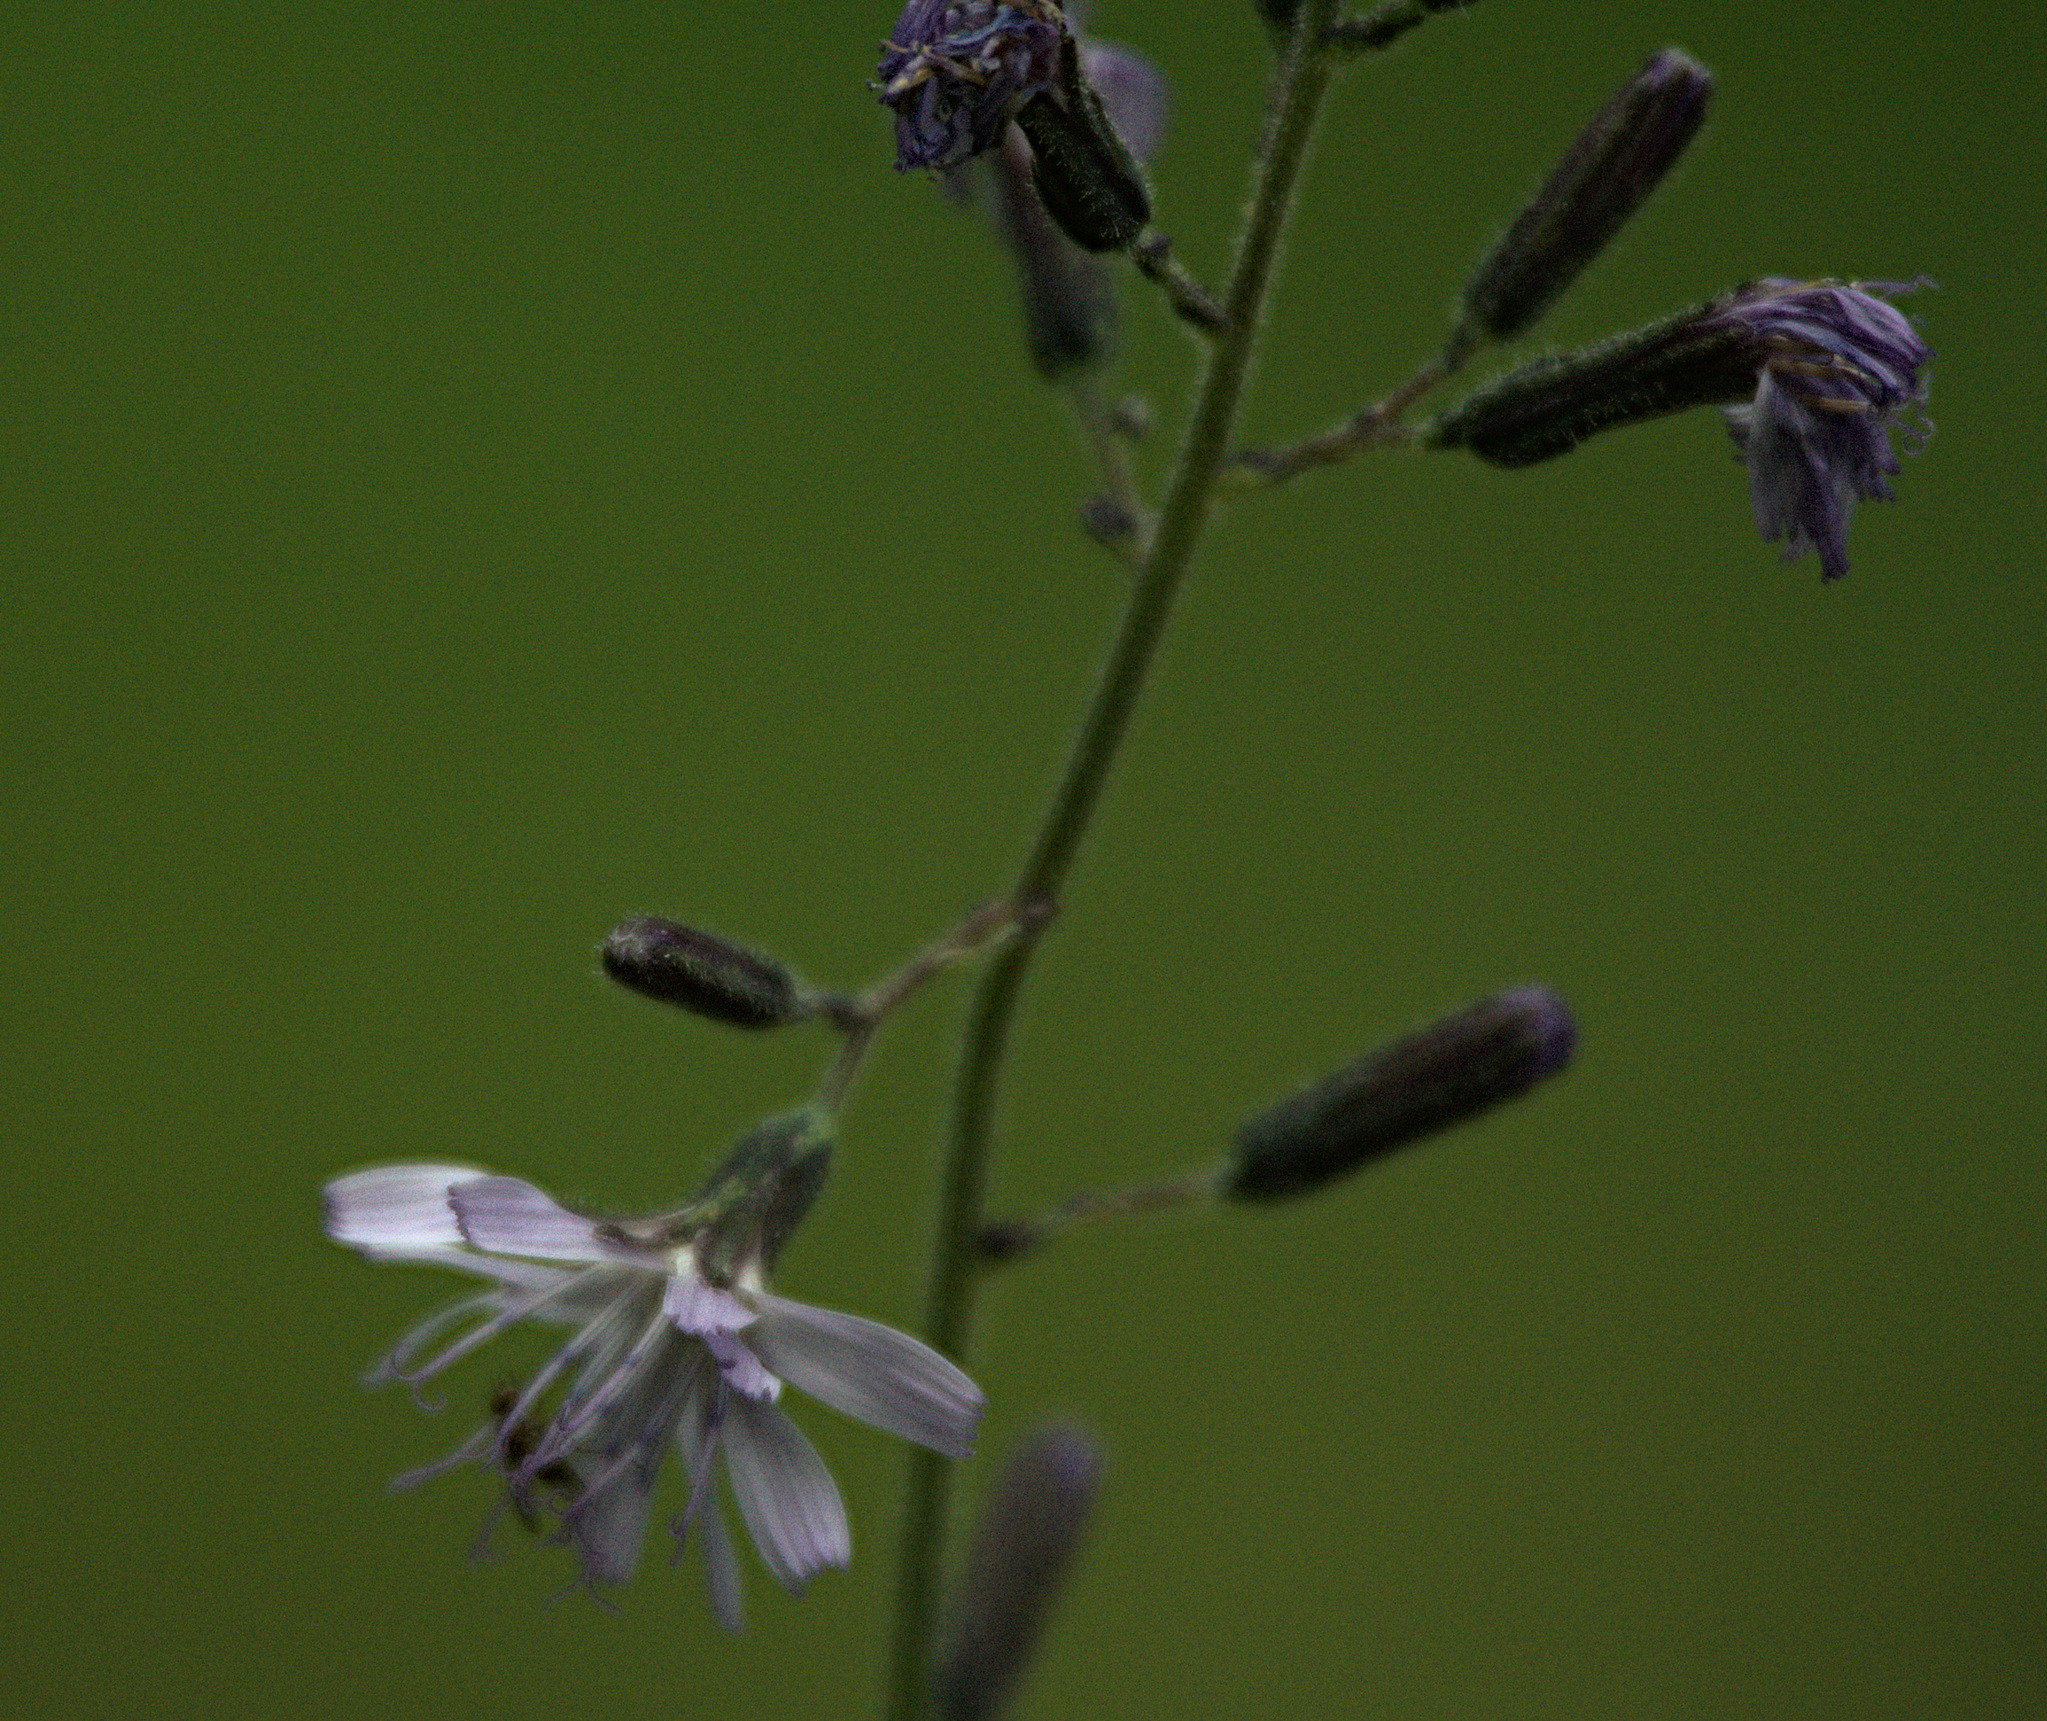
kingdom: Plantae
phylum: Tracheophyta
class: Magnoliopsida
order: Asterales
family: Asteraceae
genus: Cicerbita
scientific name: Cicerbita azurea
